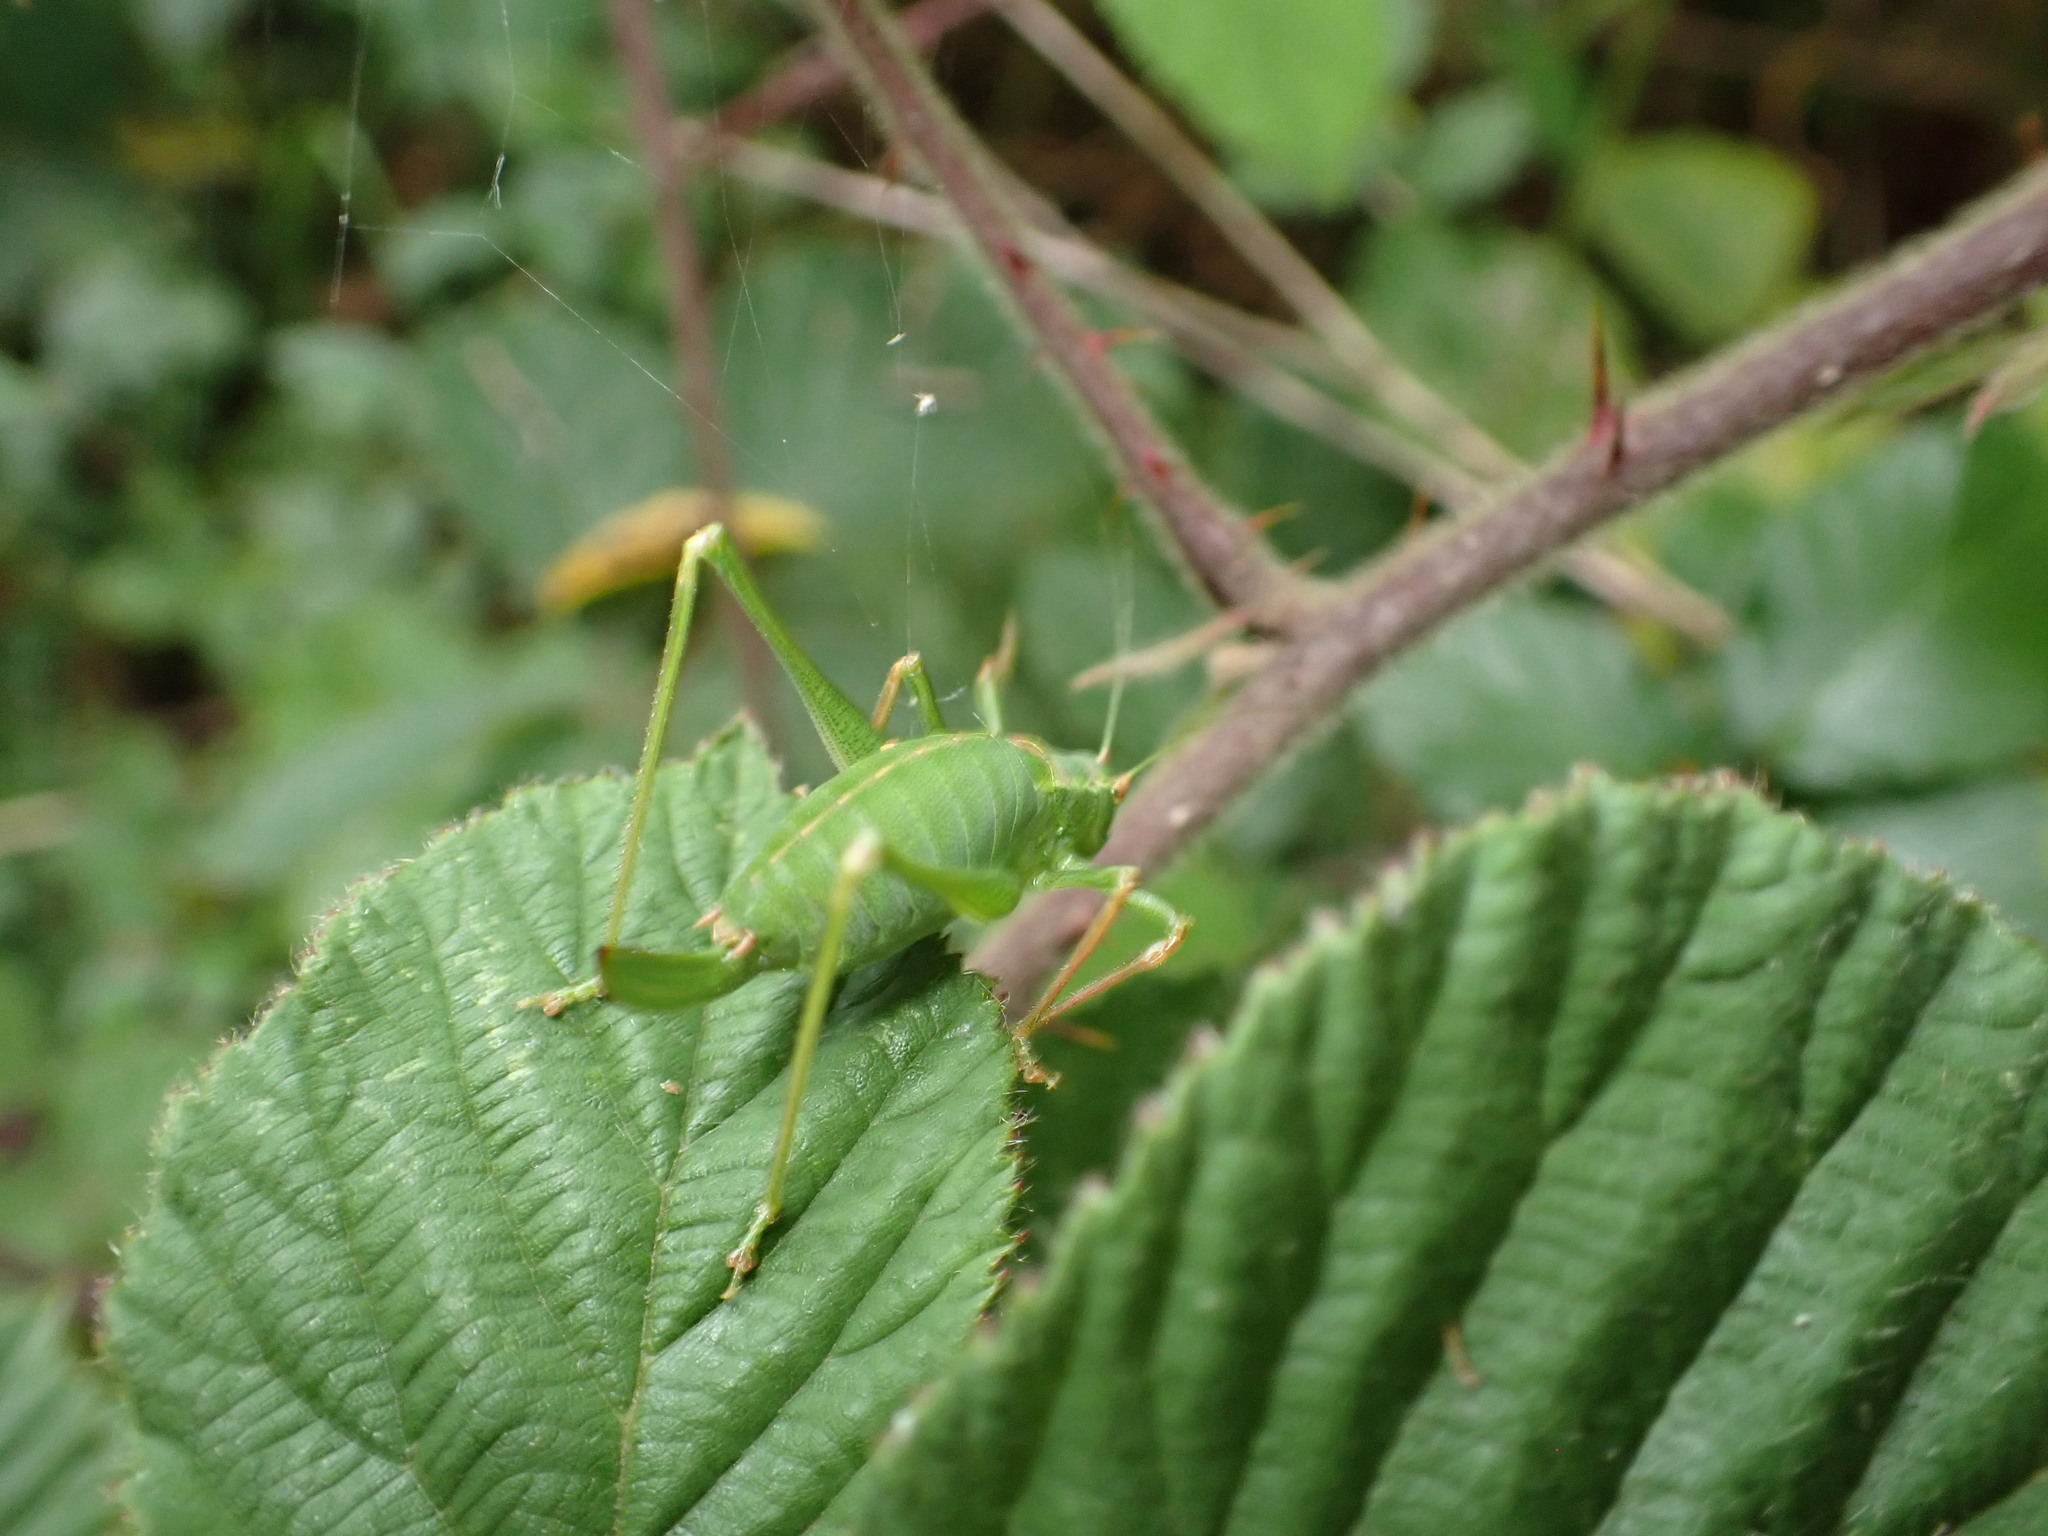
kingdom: Animalia
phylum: Arthropoda
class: Insecta
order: Orthoptera
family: Tettigoniidae
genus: Leptophyes
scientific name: Leptophyes punctatissima
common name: Speckled bush-cricket
